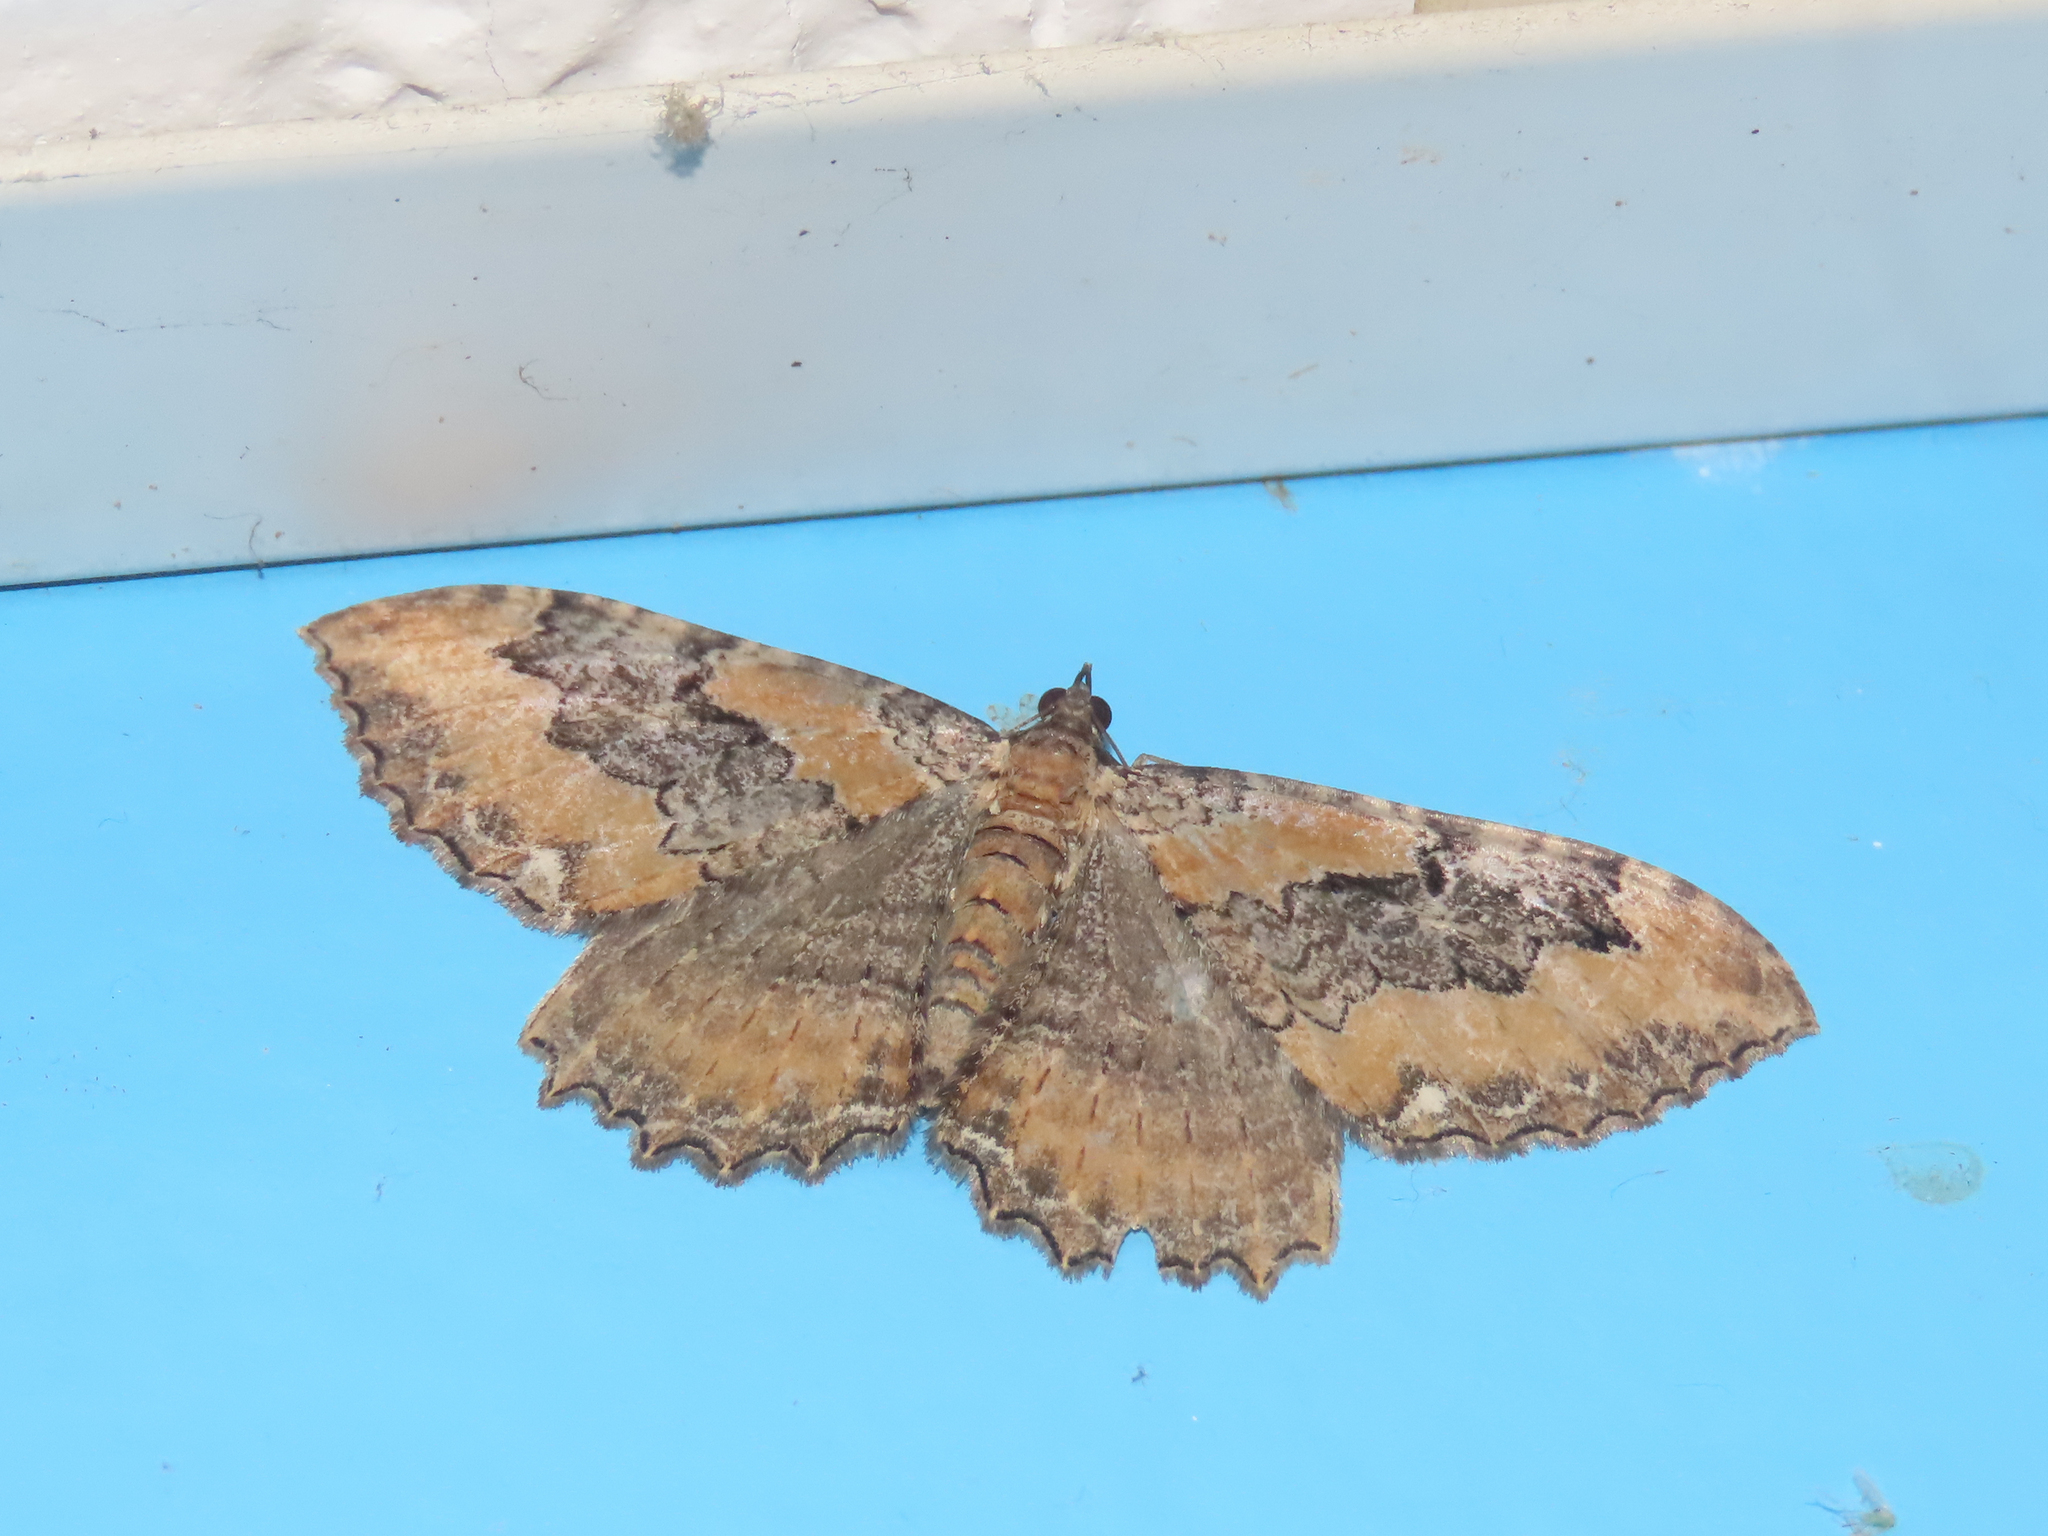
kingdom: Animalia
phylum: Arthropoda
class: Insecta
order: Lepidoptera
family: Geometridae
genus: Rheumaptera
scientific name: Rheumaptera
